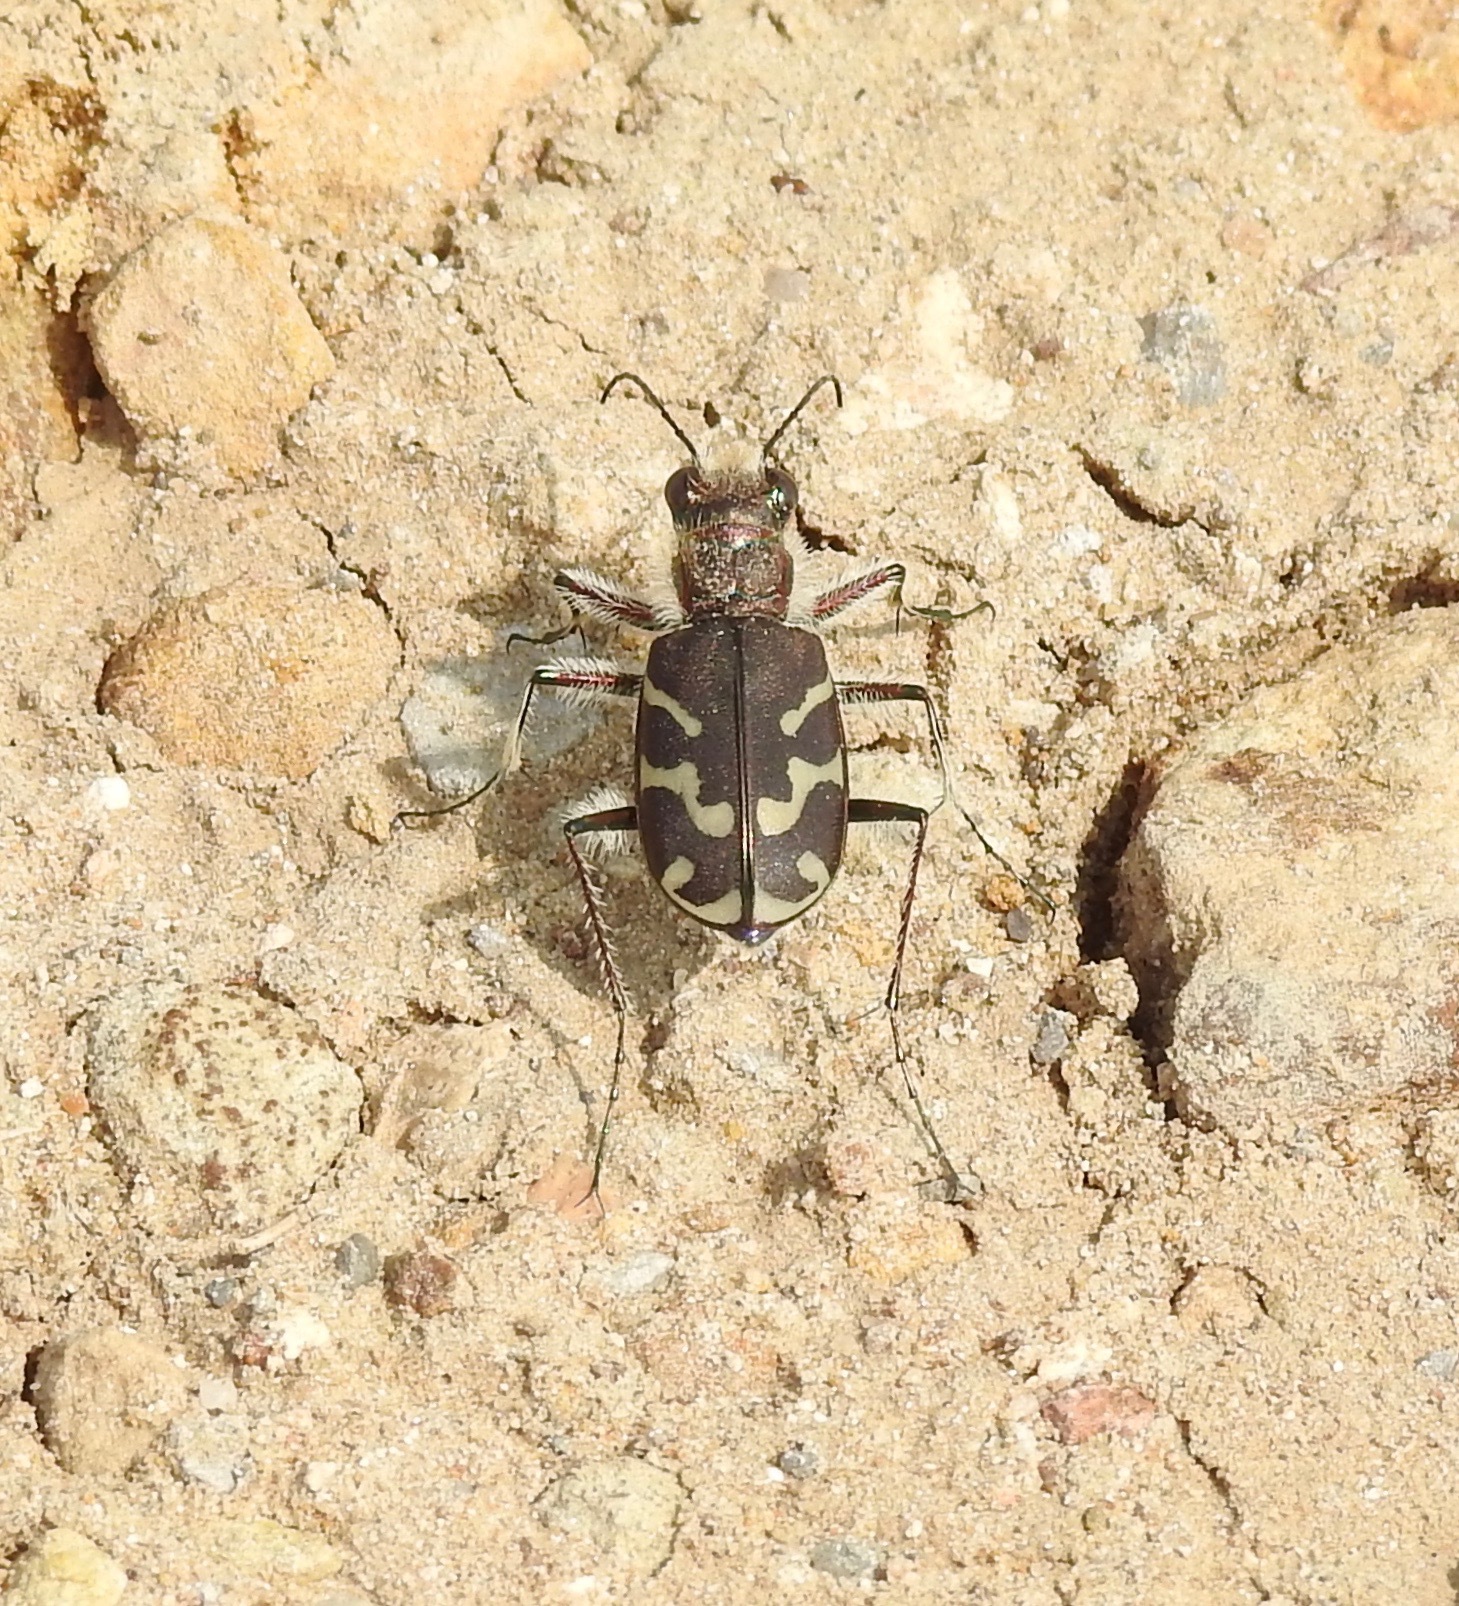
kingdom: Animalia
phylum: Arthropoda
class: Insecta
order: Coleoptera
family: Carabidae
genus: Cicindela
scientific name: Cicindela tranquebarica
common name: Oblique-lined tiger beetle
